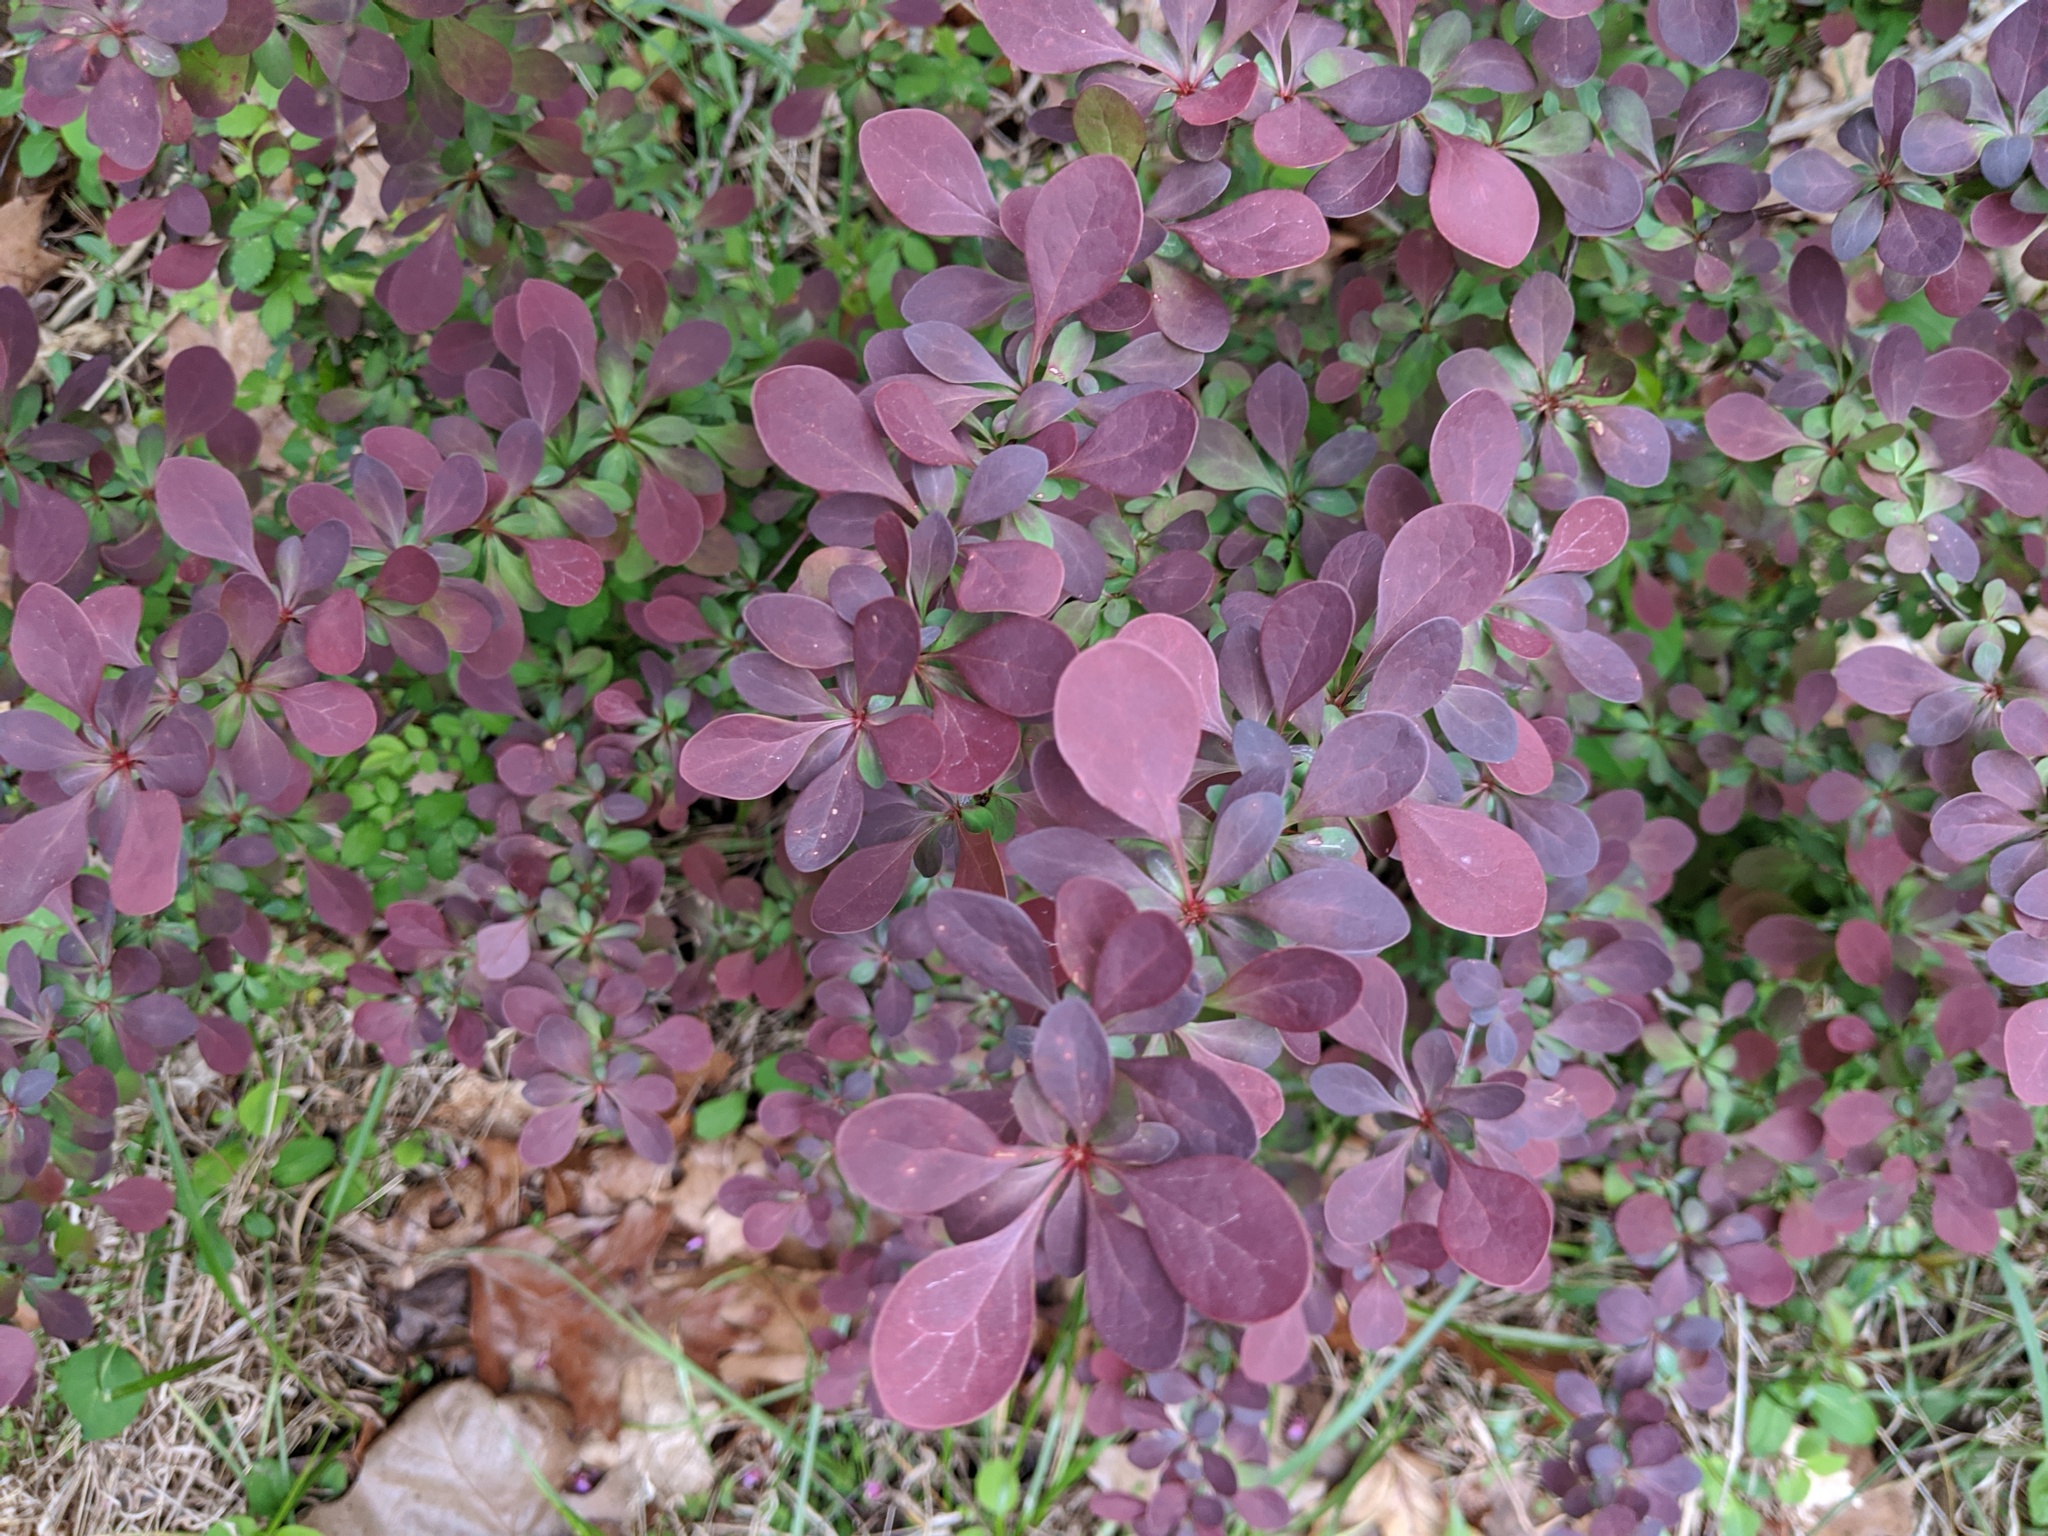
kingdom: Plantae
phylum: Tracheophyta
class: Magnoliopsida
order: Ranunculales
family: Berberidaceae
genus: Berberis
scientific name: Berberis thunbergii
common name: Japanese barberry
